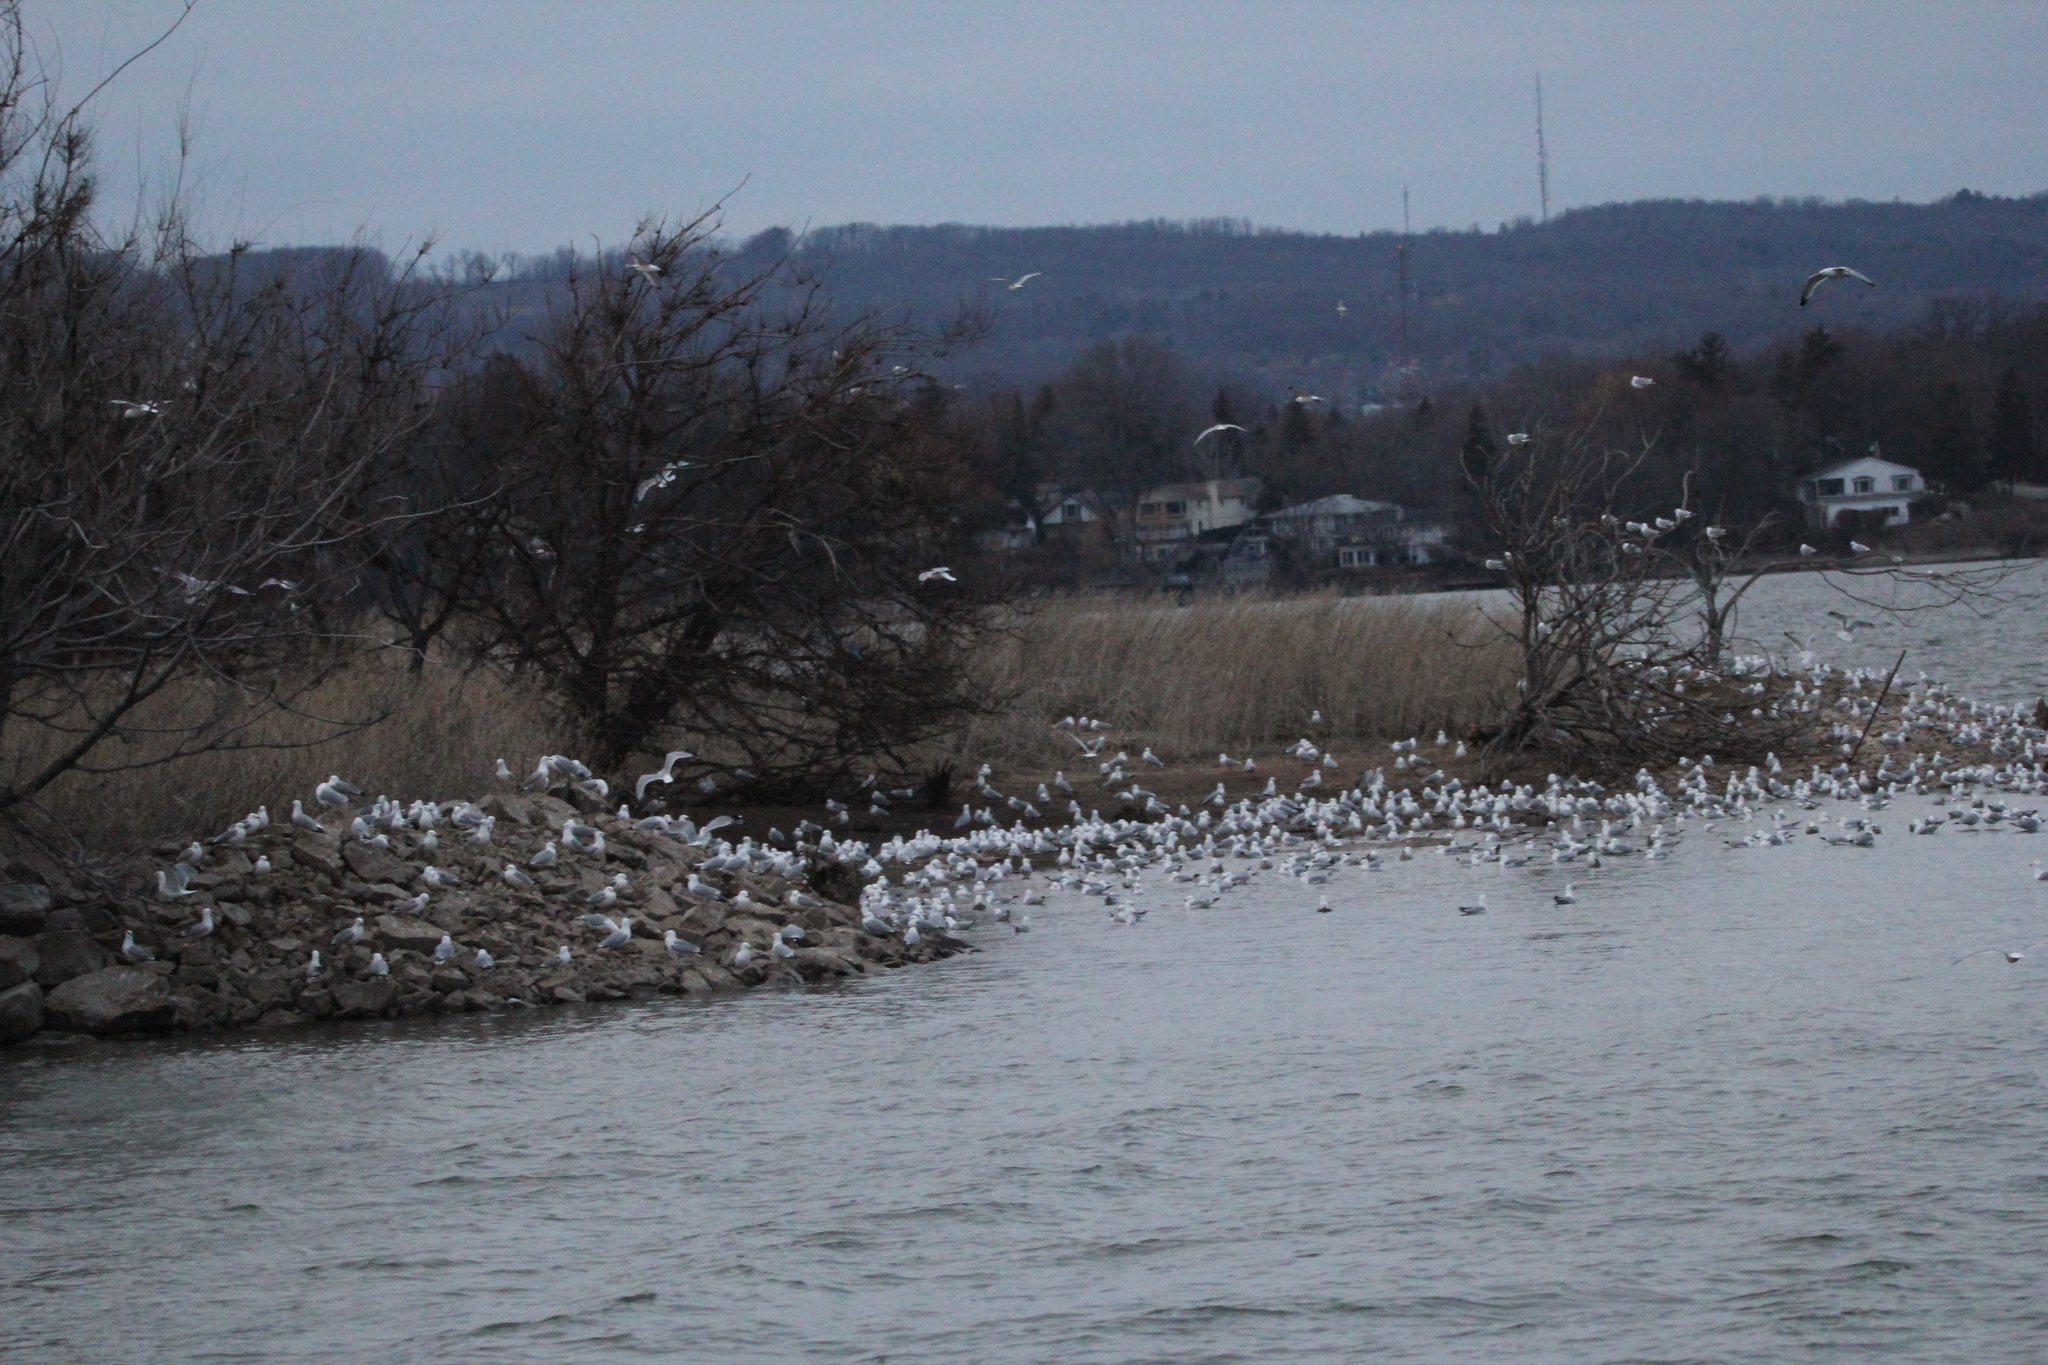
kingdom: Animalia
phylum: Chordata
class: Aves
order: Charadriiformes
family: Laridae
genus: Larus
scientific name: Larus delawarensis
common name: Ring-billed gull
